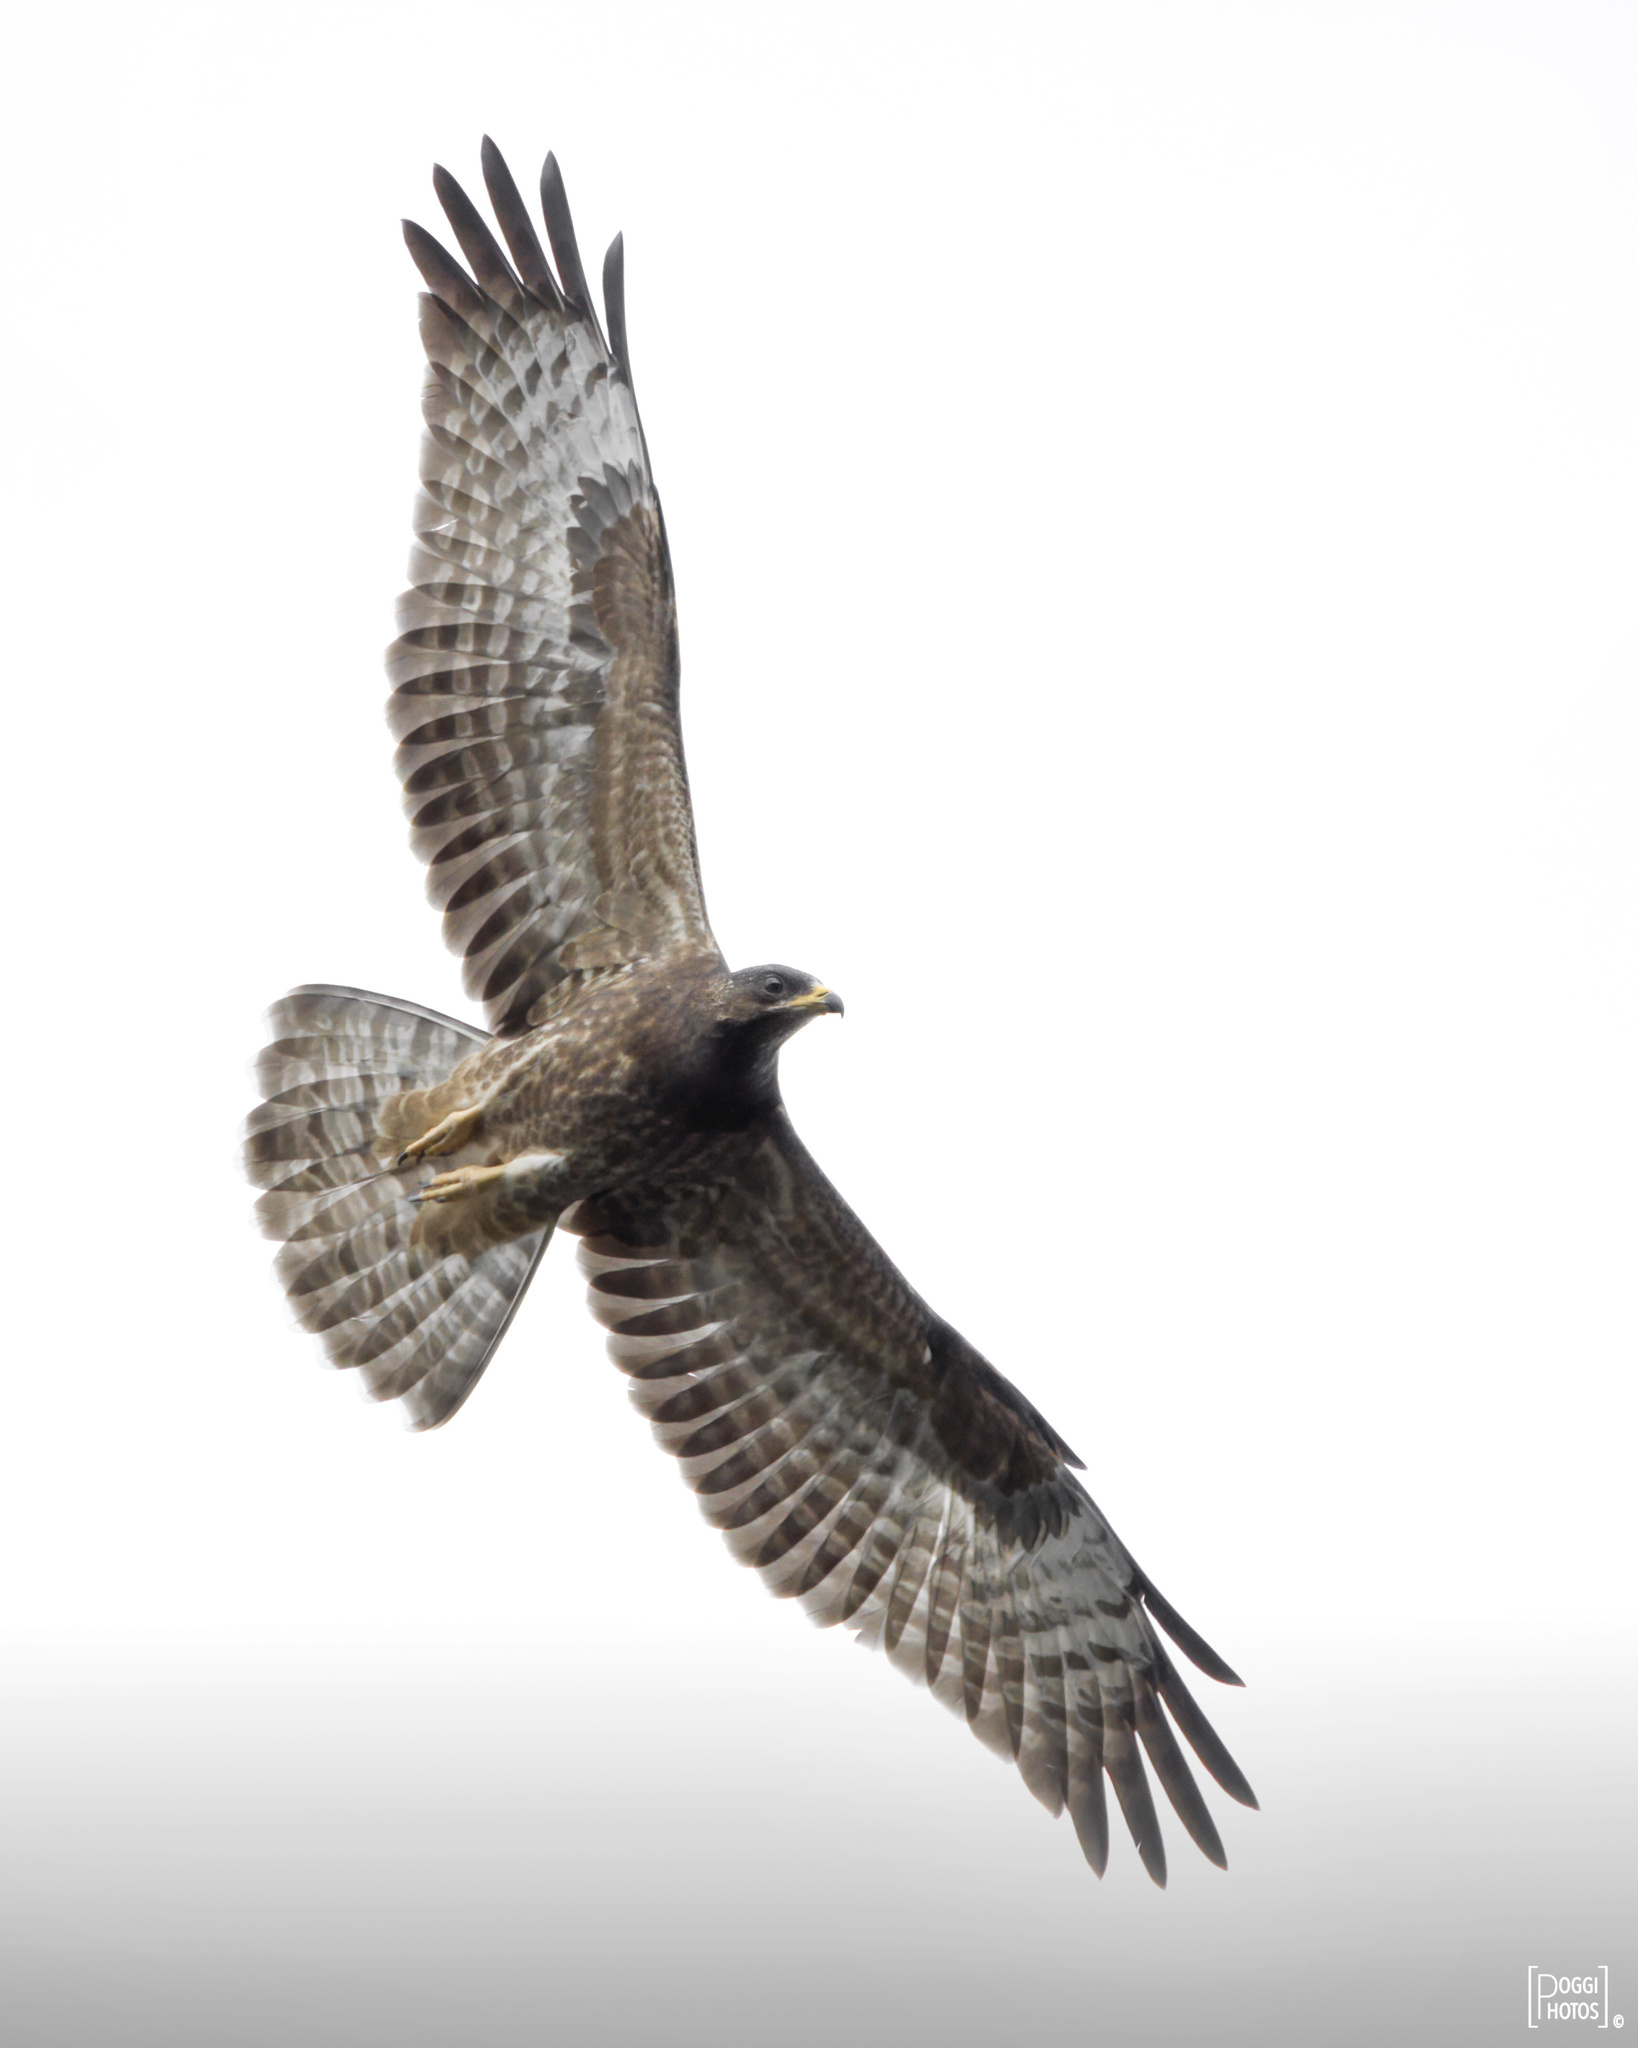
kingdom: Animalia
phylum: Chordata
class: Aves
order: Accipitriformes
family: Accipitridae
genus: Pernis
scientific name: Pernis apivorus
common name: European honey buzzard
